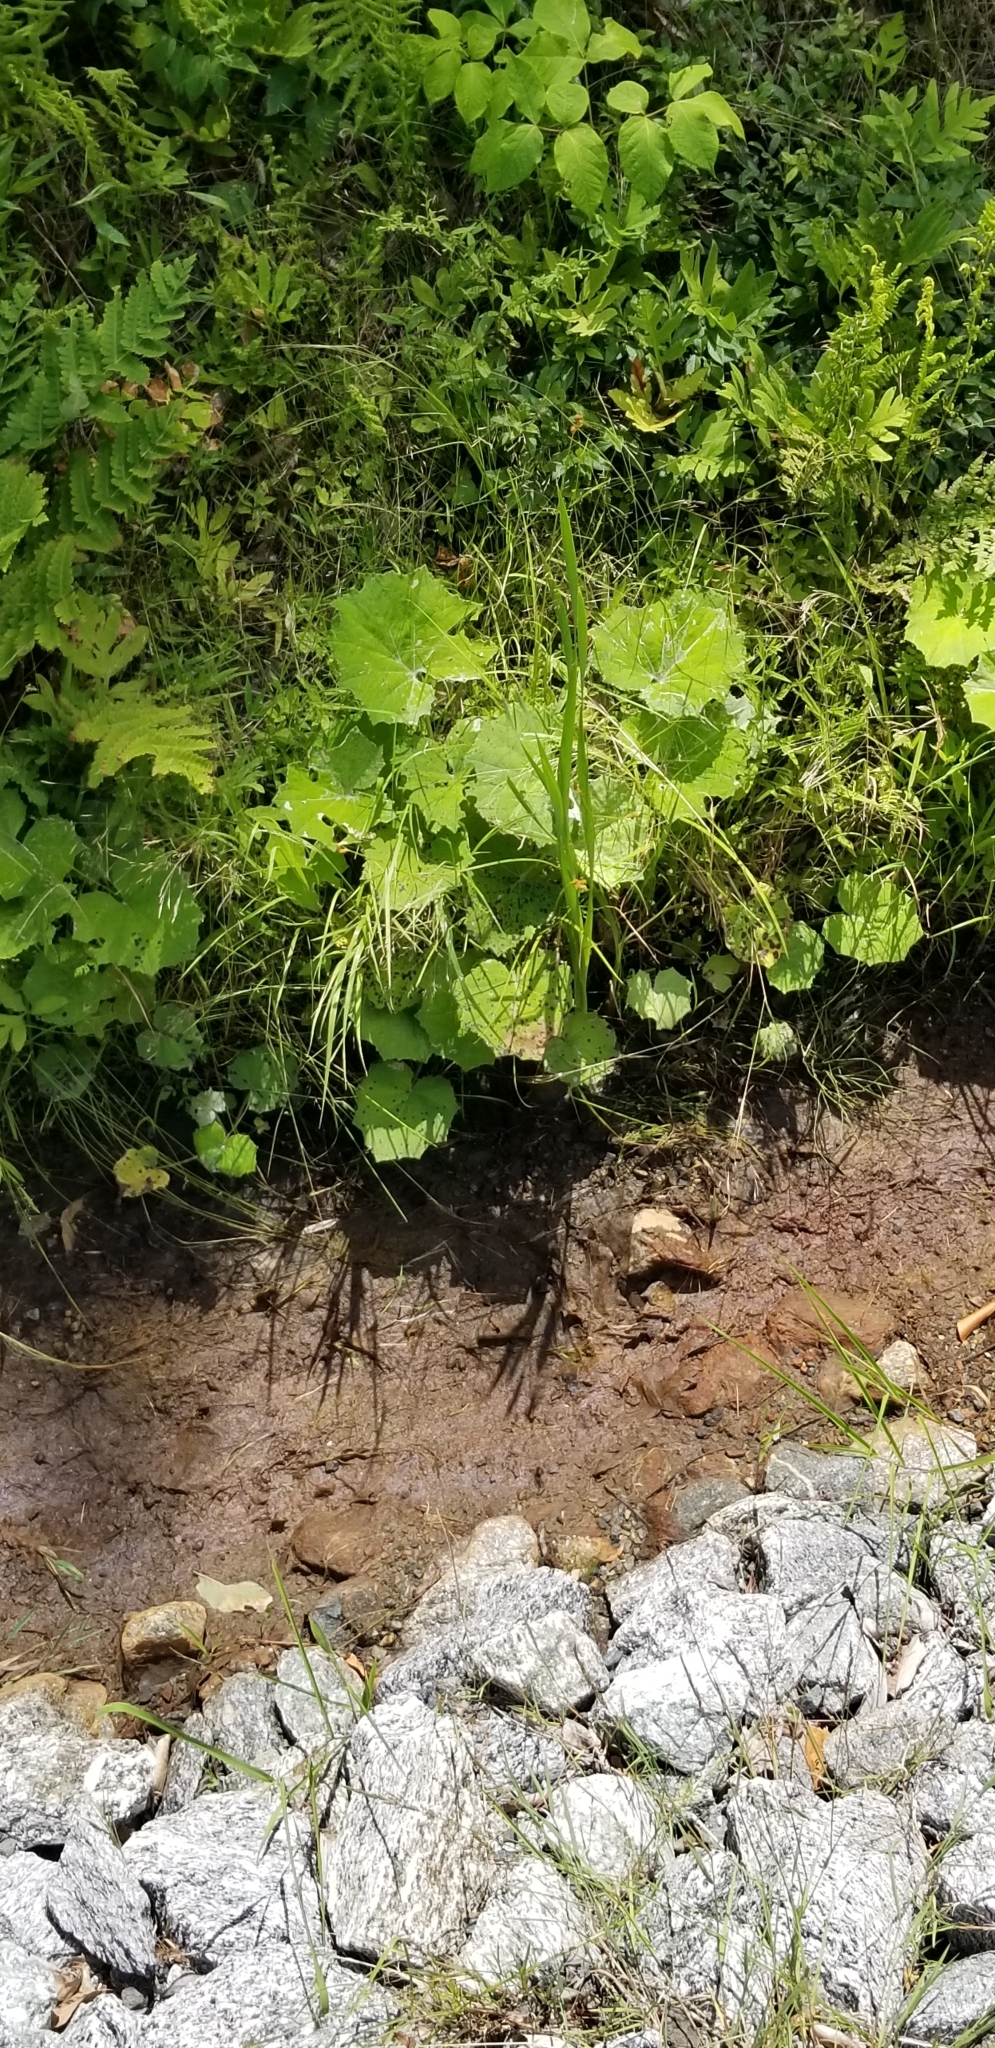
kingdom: Plantae
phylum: Tracheophyta
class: Magnoliopsida
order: Asterales
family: Asteraceae
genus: Tussilago
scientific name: Tussilago farfara
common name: Coltsfoot
